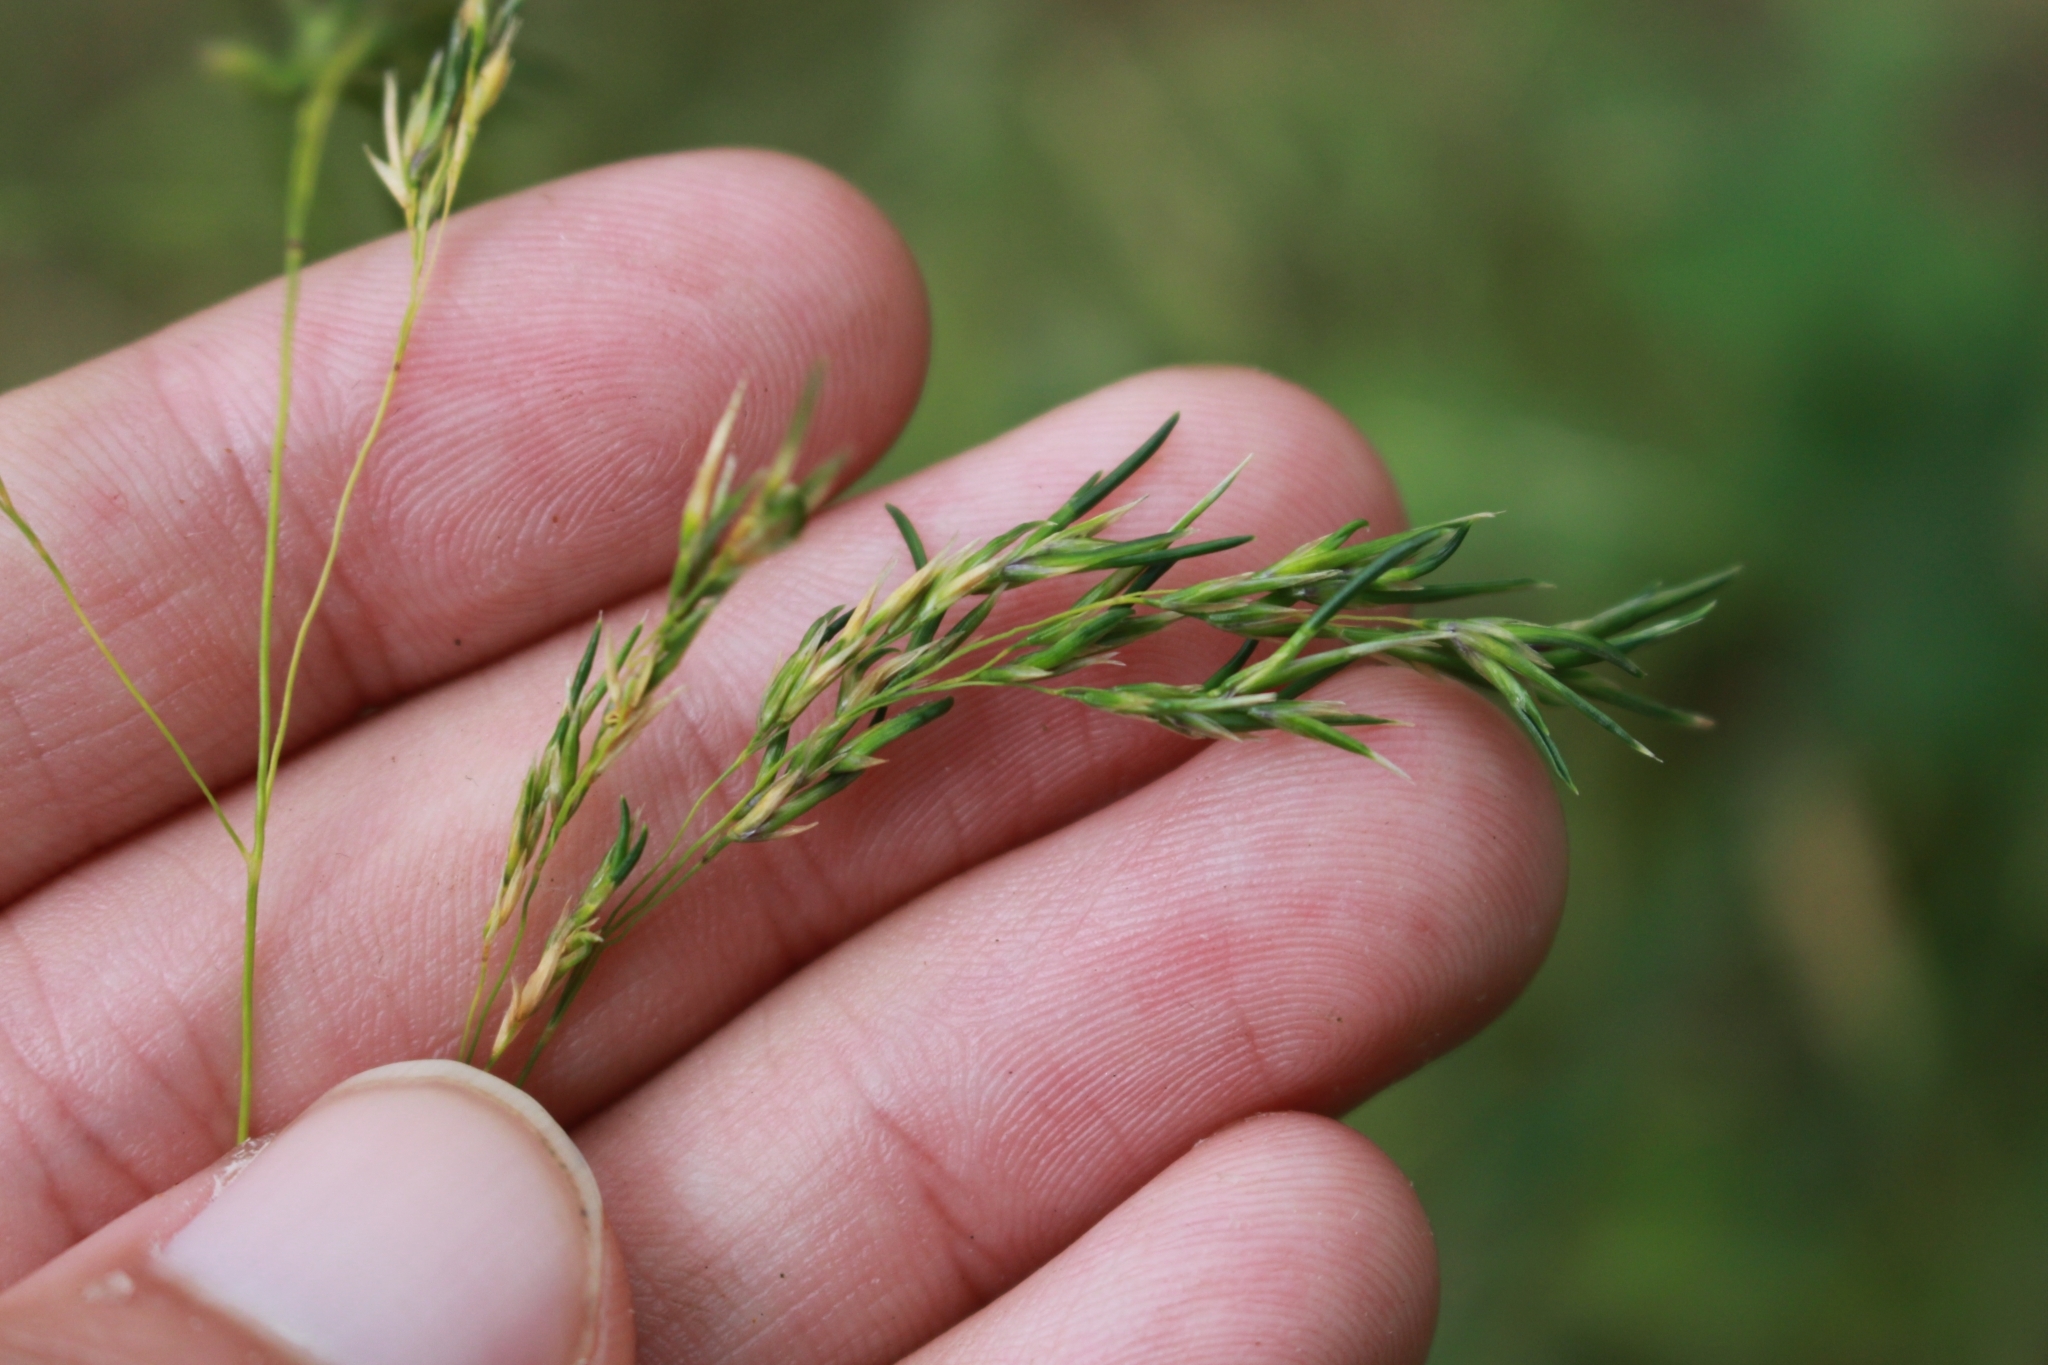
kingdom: Plantae
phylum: Tracheophyta
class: Liliopsida
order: Poales
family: Poaceae
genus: Deschampsia
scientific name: Deschampsia cespitosa
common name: Tufted hair-grass
